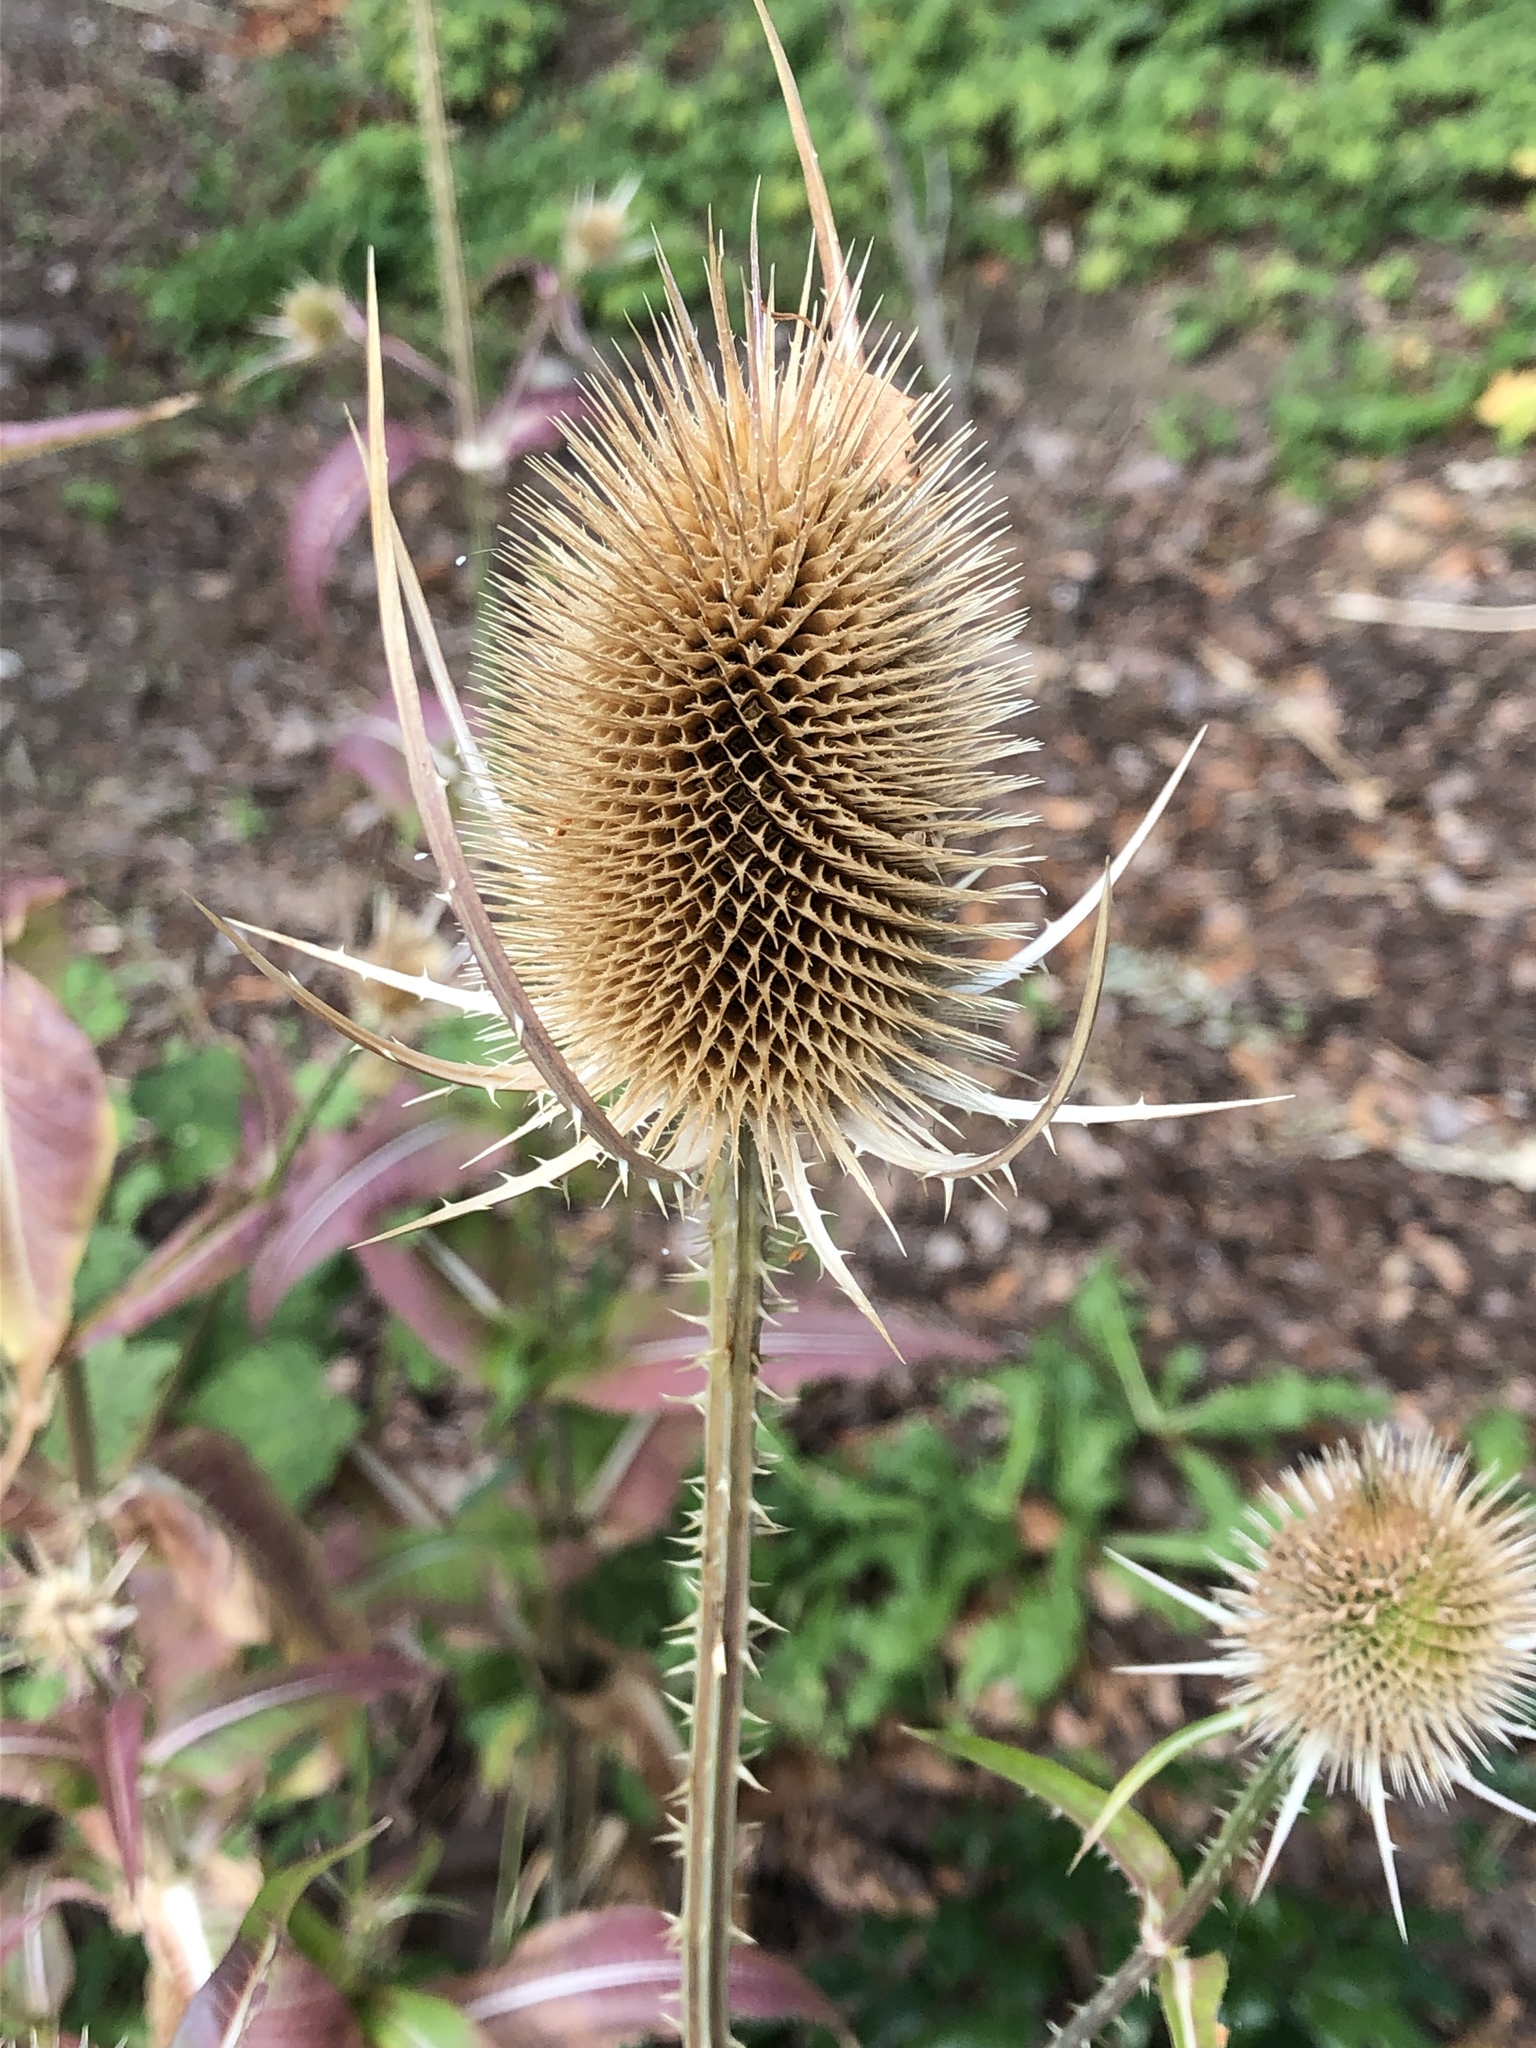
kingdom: Plantae
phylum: Tracheophyta
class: Magnoliopsida
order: Dipsacales
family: Caprifoliaceae
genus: Dipsacus
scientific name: Dipsacus fullonum
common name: Teasel
